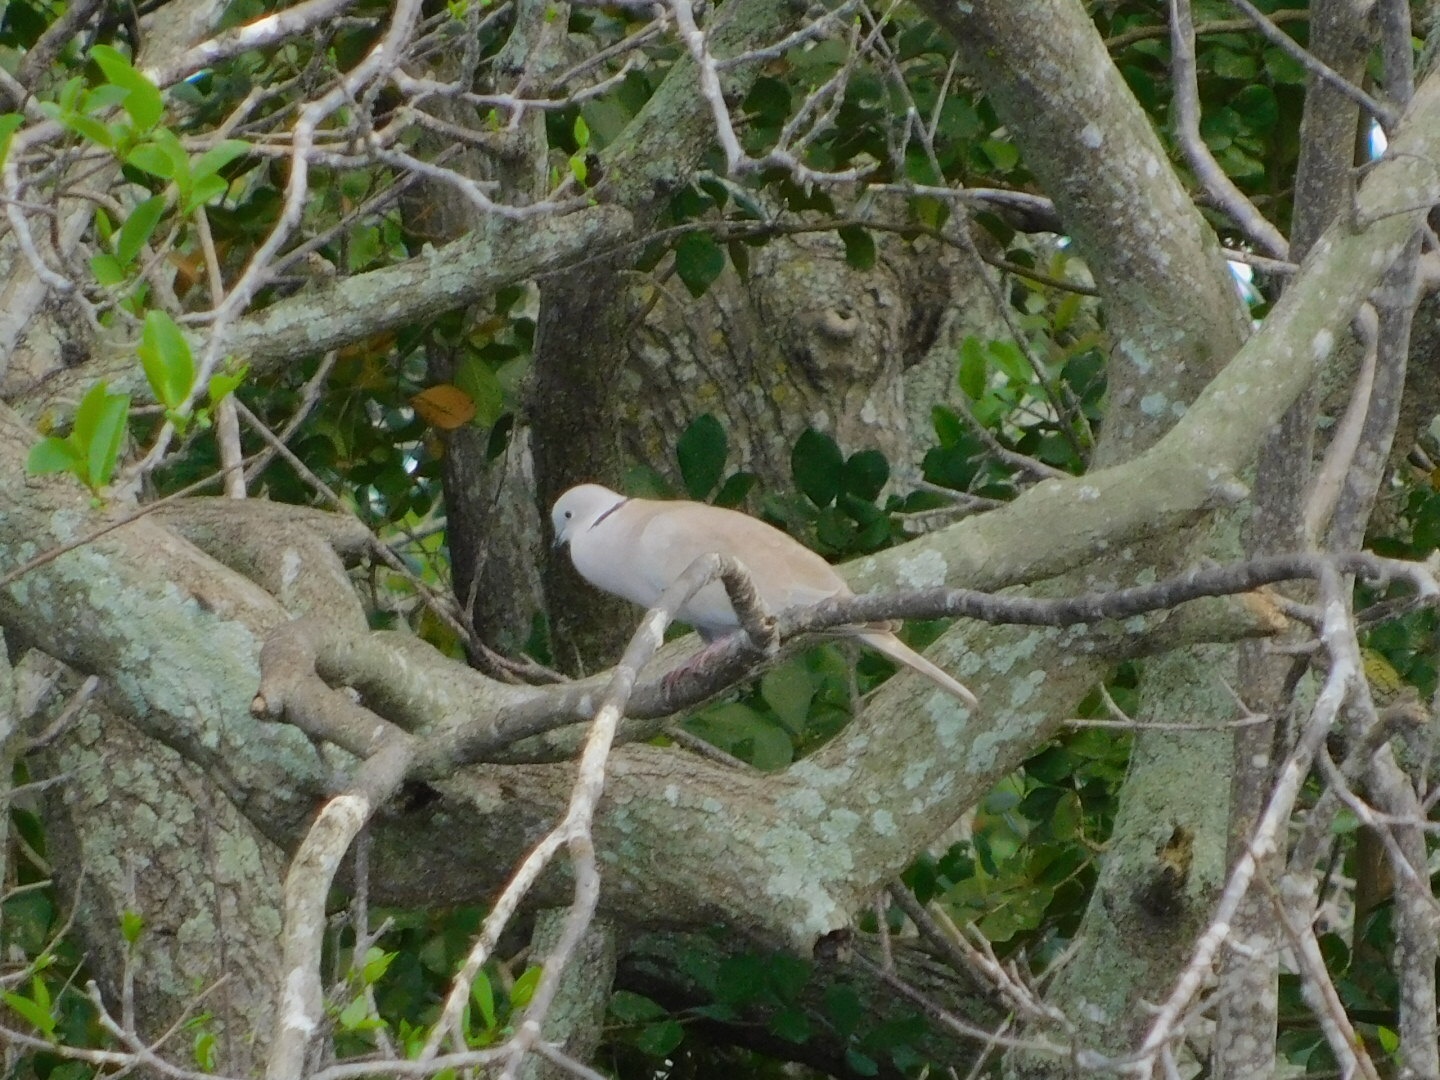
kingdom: Animalia
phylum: Chordata
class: Aves
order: Columbiformes
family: Columbidae
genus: Streptopelia
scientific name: Streptopelia decaocto
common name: Eurasian collared dove
